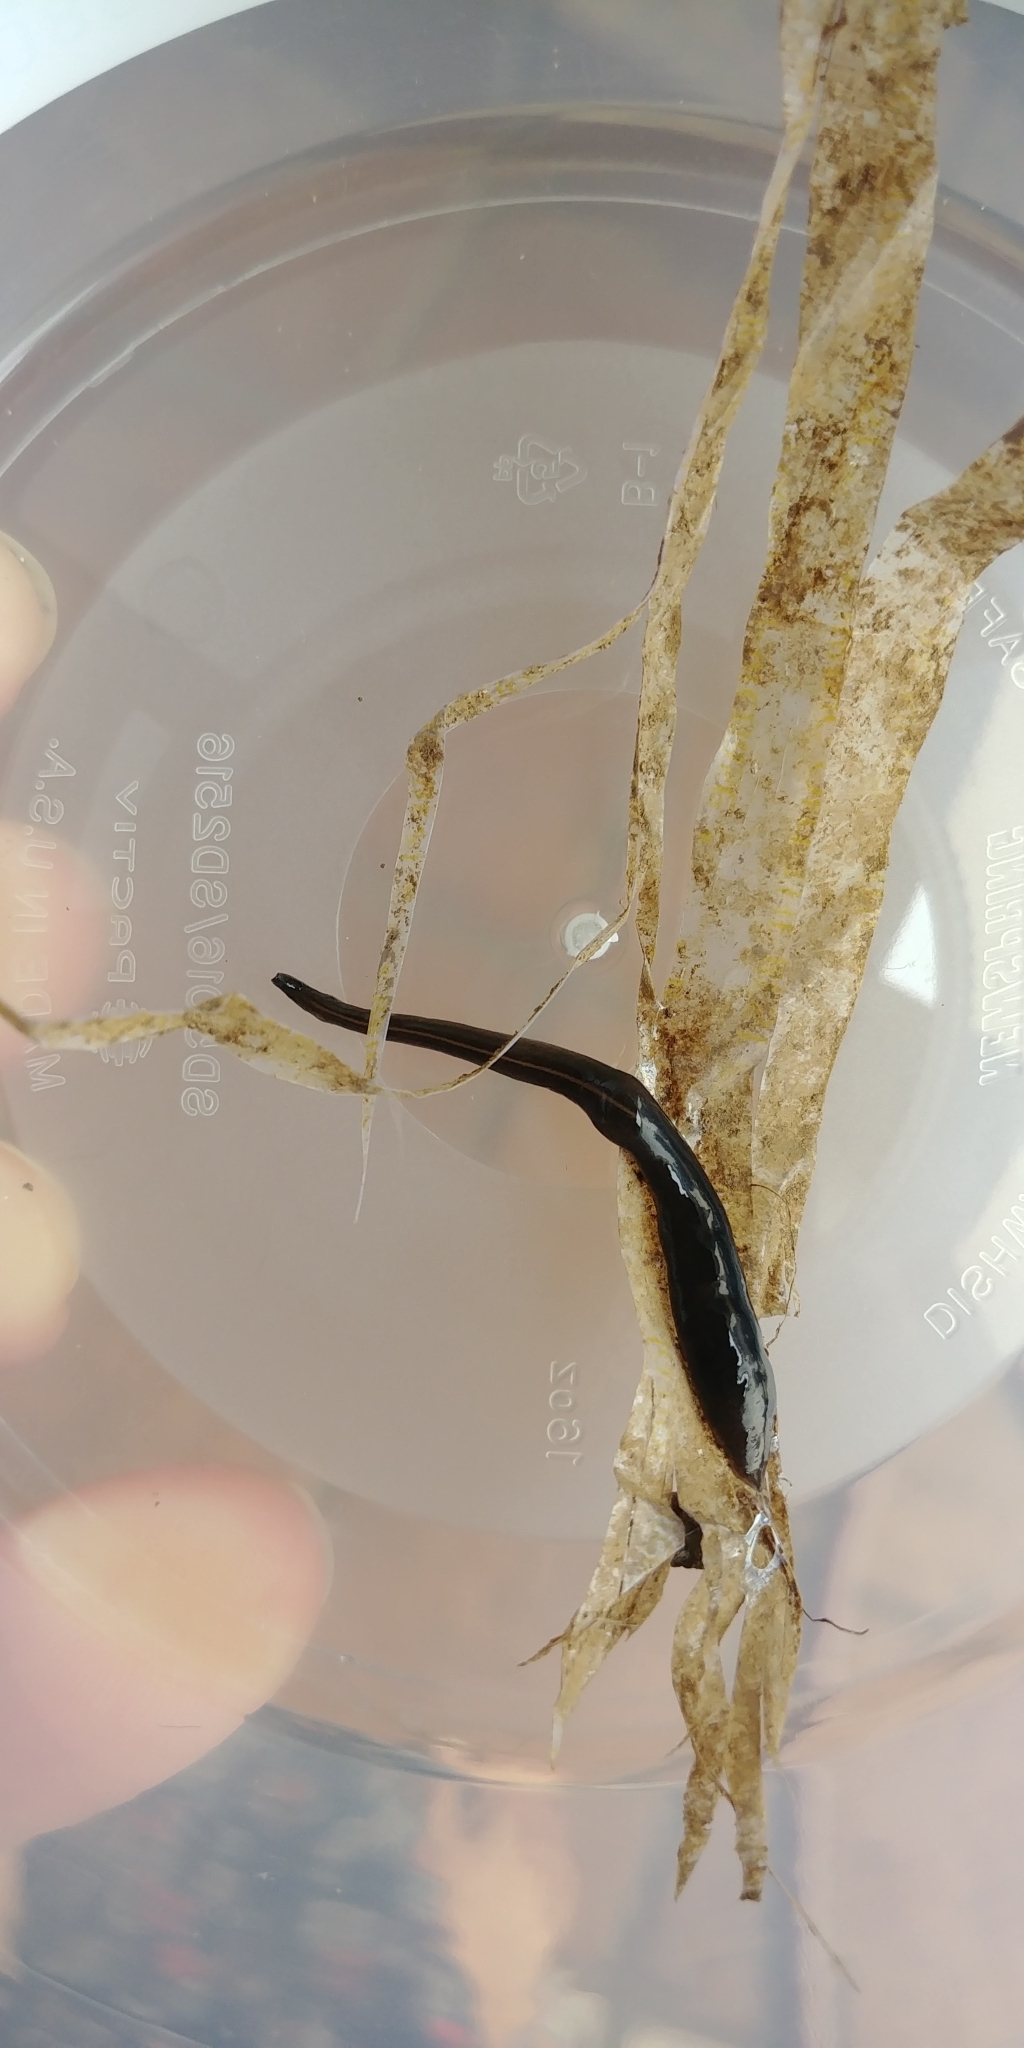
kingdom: Animalia
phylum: Platyhelminthes
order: Tricladida
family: Geoplanidae
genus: Platydemus
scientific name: Platydemus manokwari
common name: New guinea flatworm
